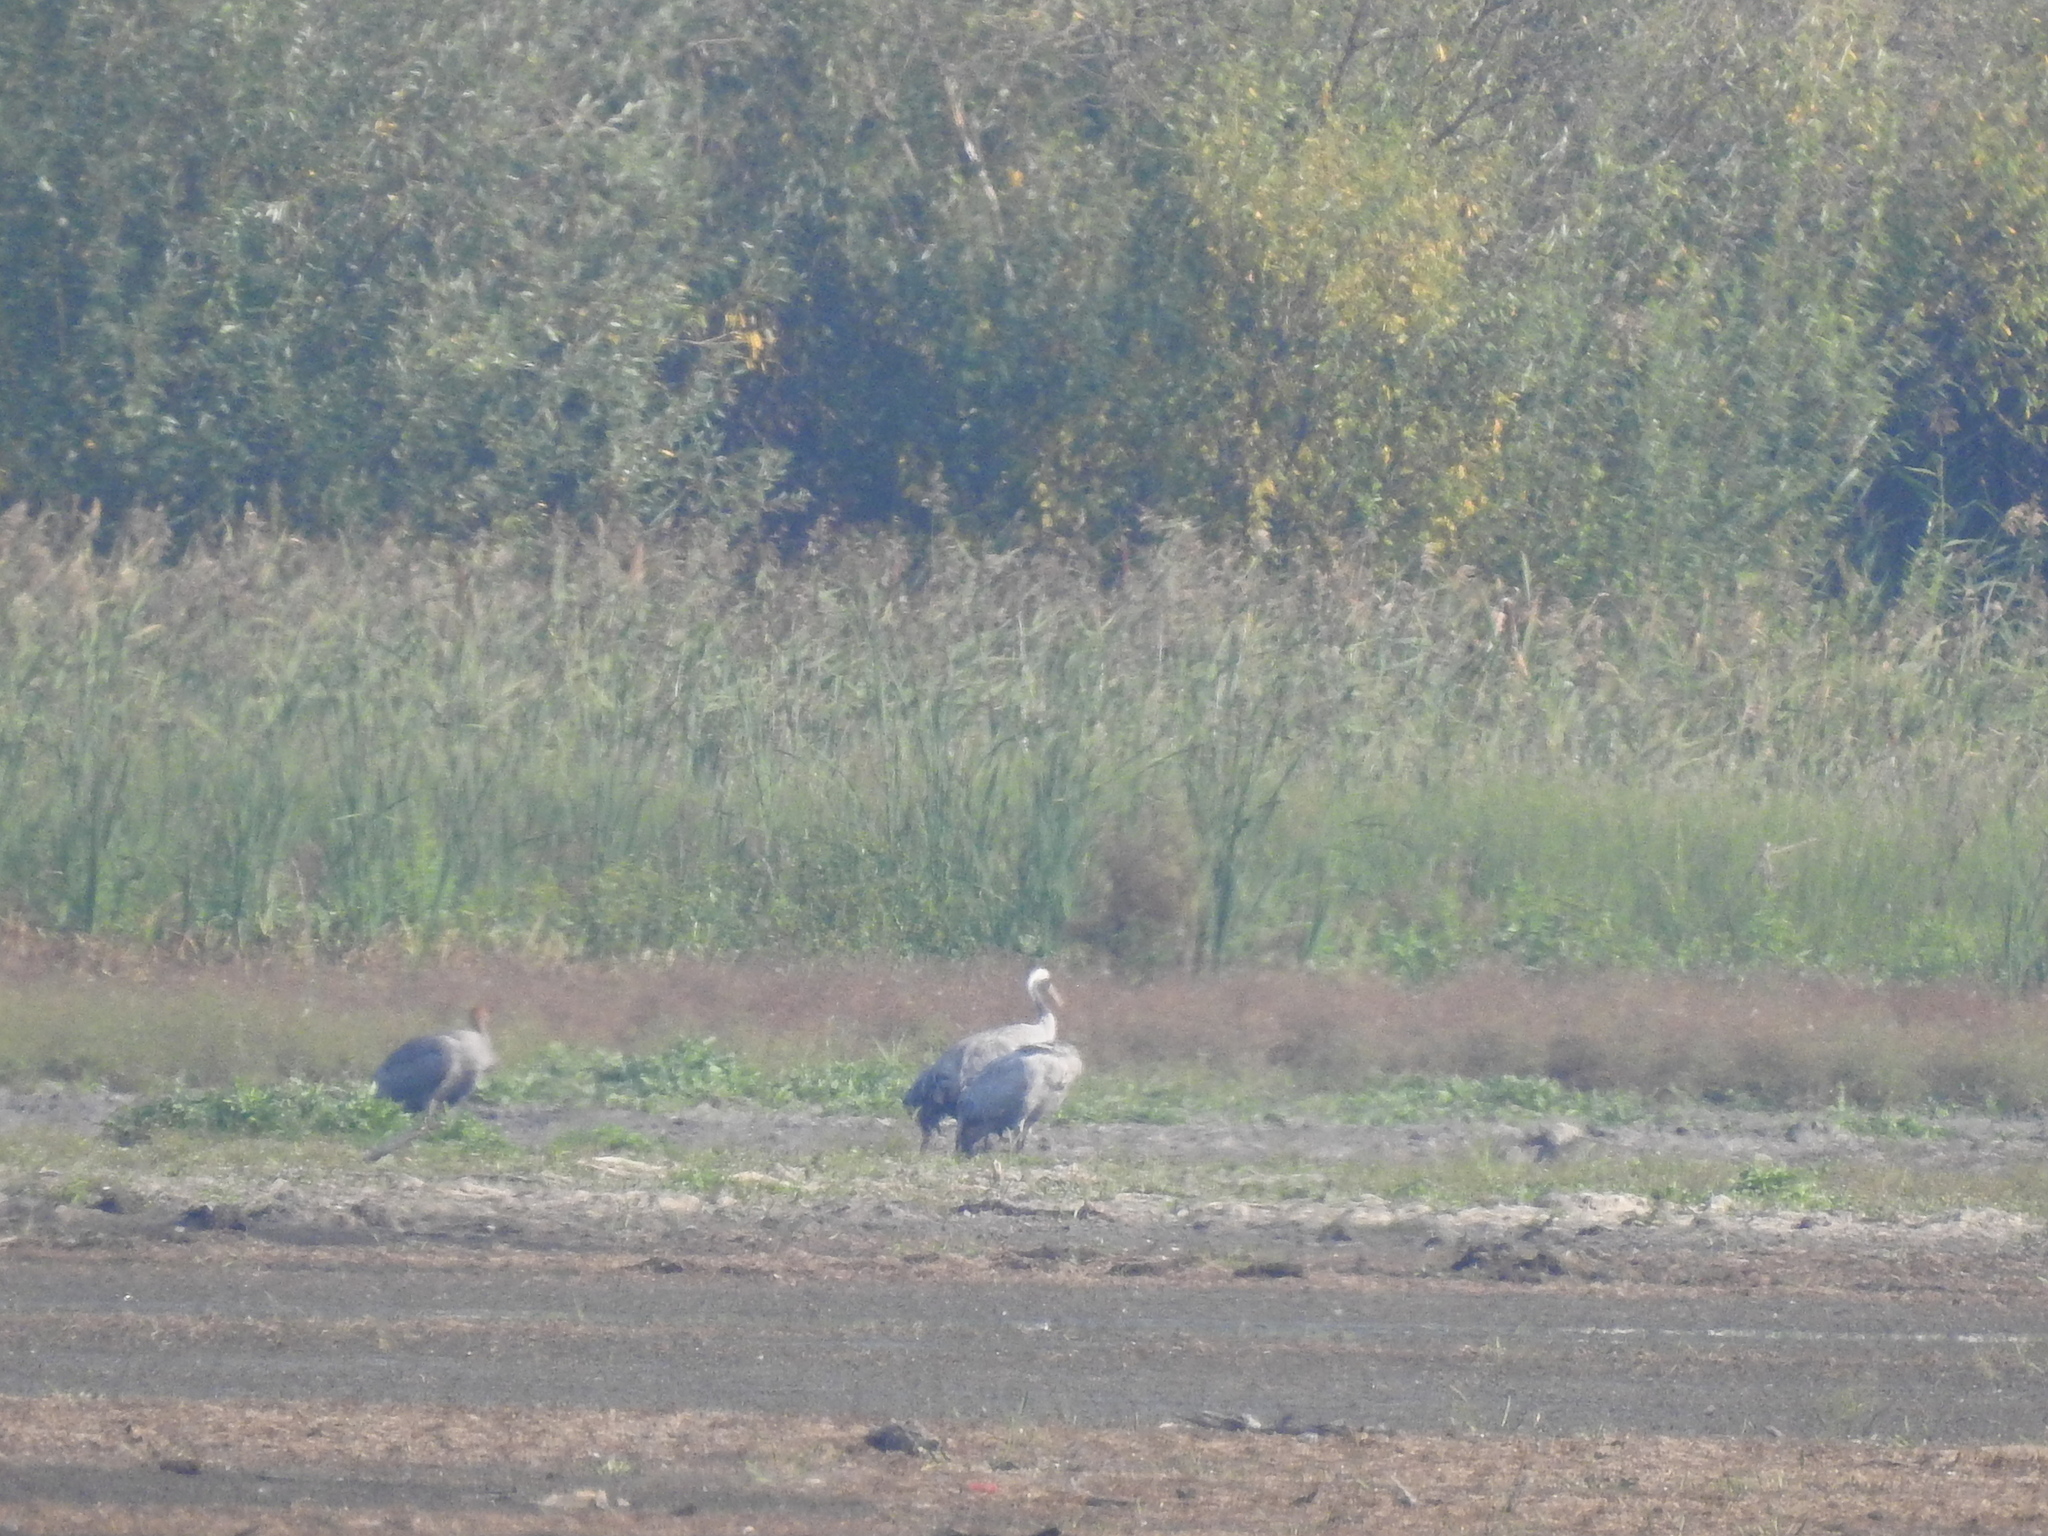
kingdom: Animalia
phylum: Chordata
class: Aves
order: Gruiformes
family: Gruidae
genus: Grus
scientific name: Grus grus
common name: Common crane
